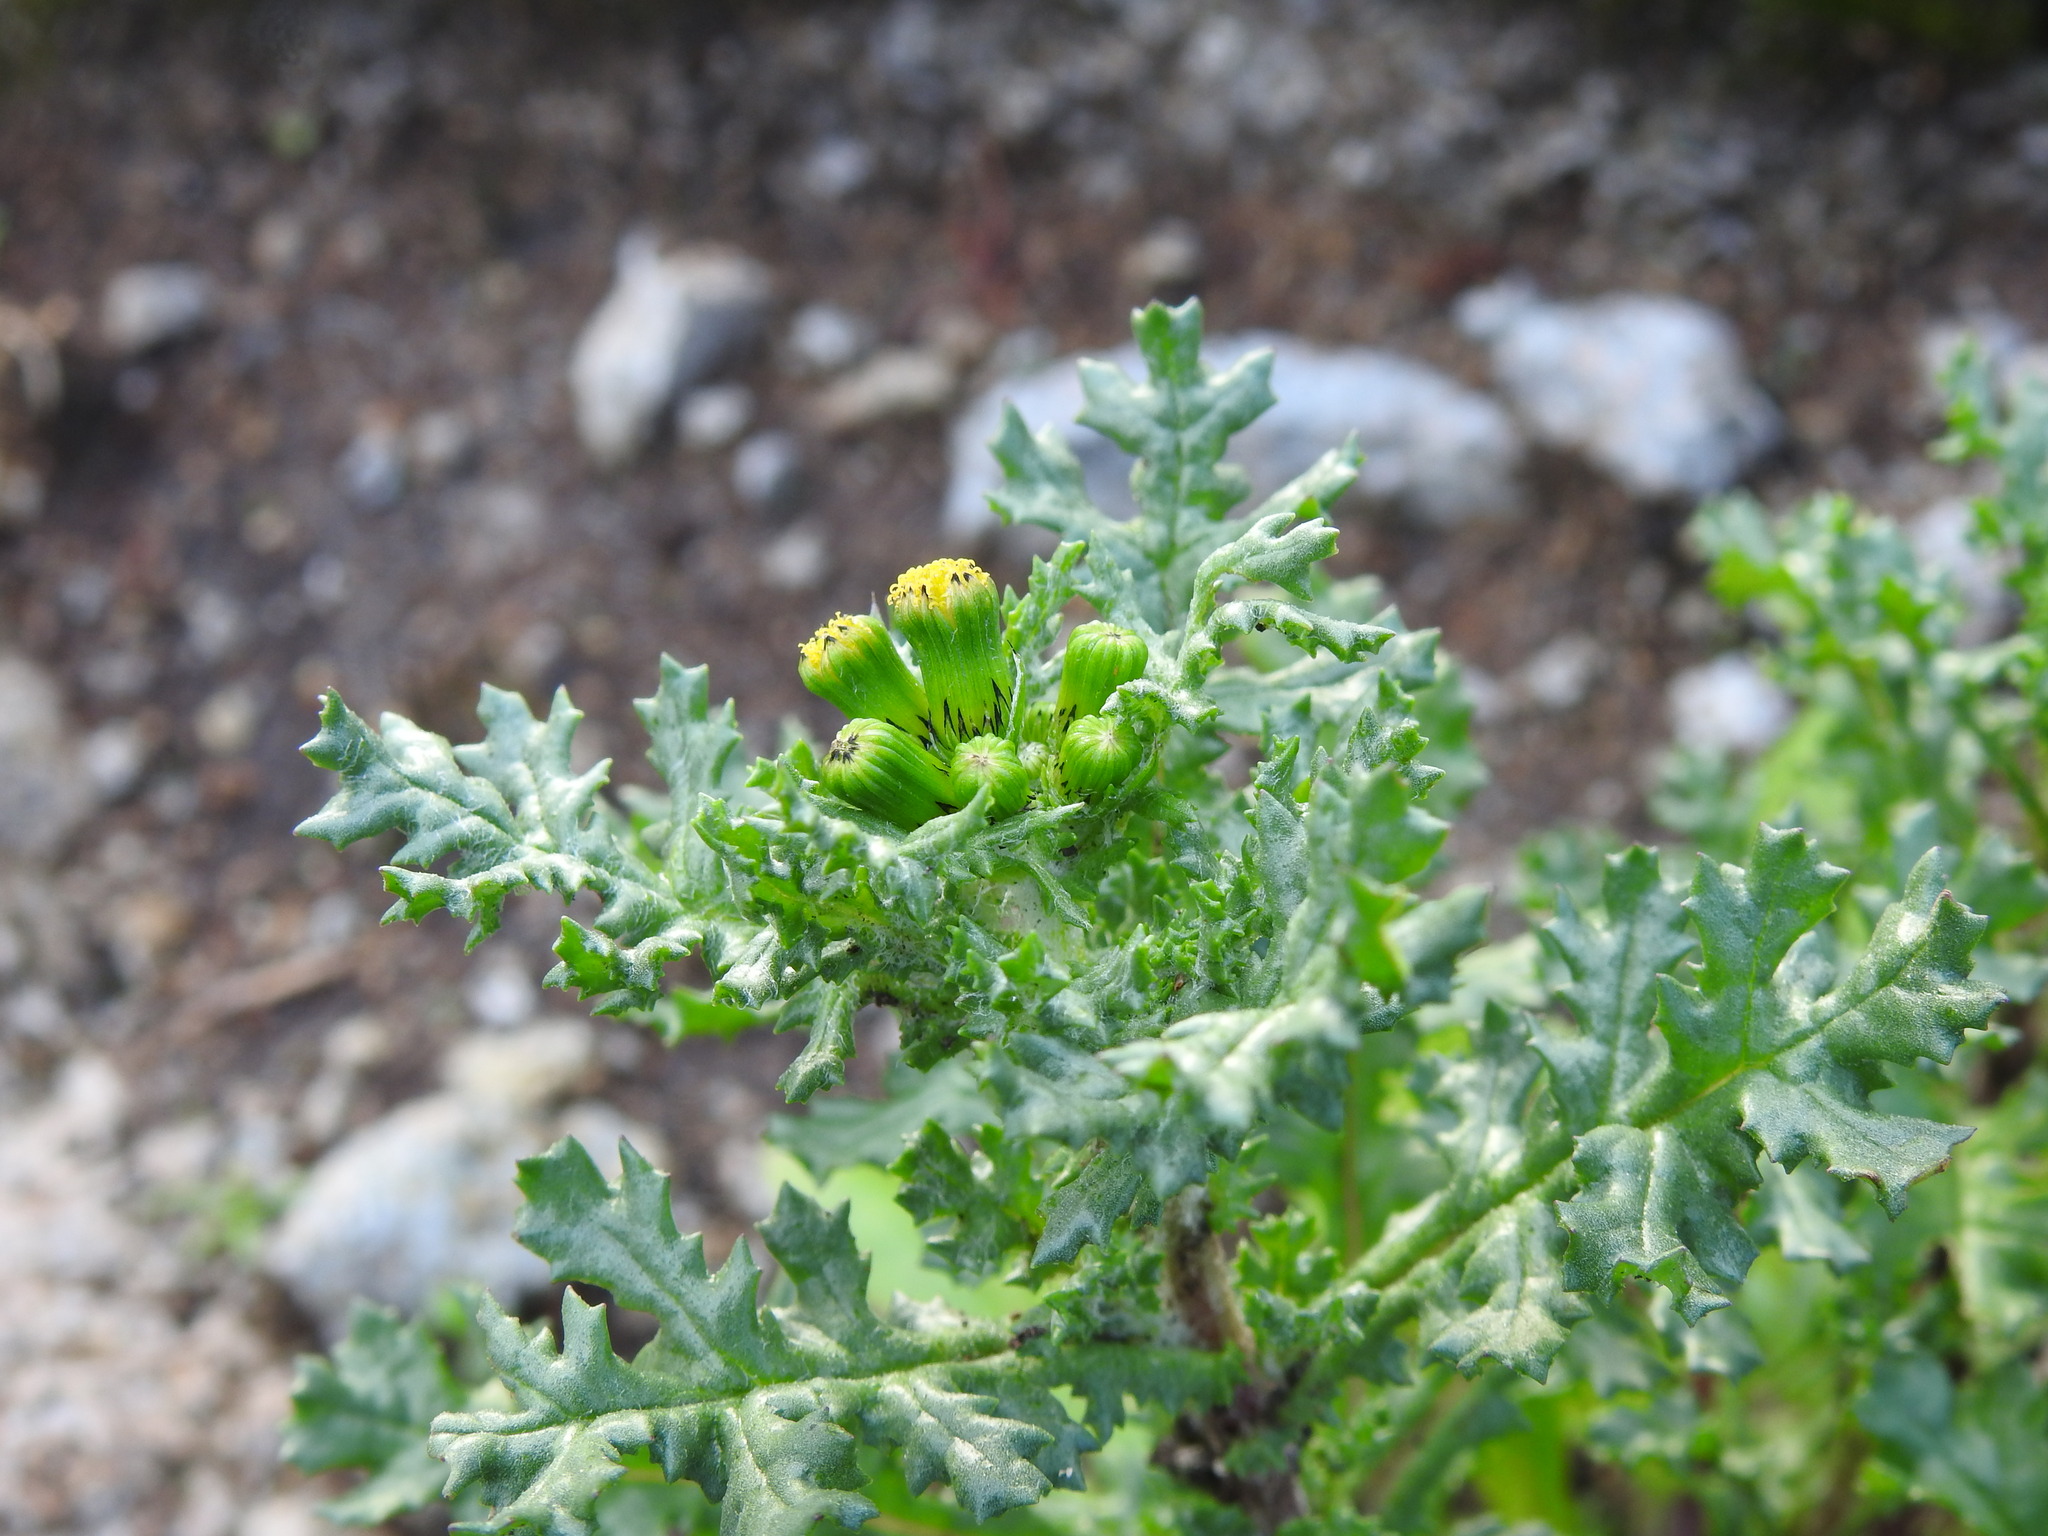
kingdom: Plantae
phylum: Tracheophyta
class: Magnoliopsida
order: Asterales
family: Asteraceae
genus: Senecio
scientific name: Senecio vulgaris
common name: Old-man-in-the-spring
